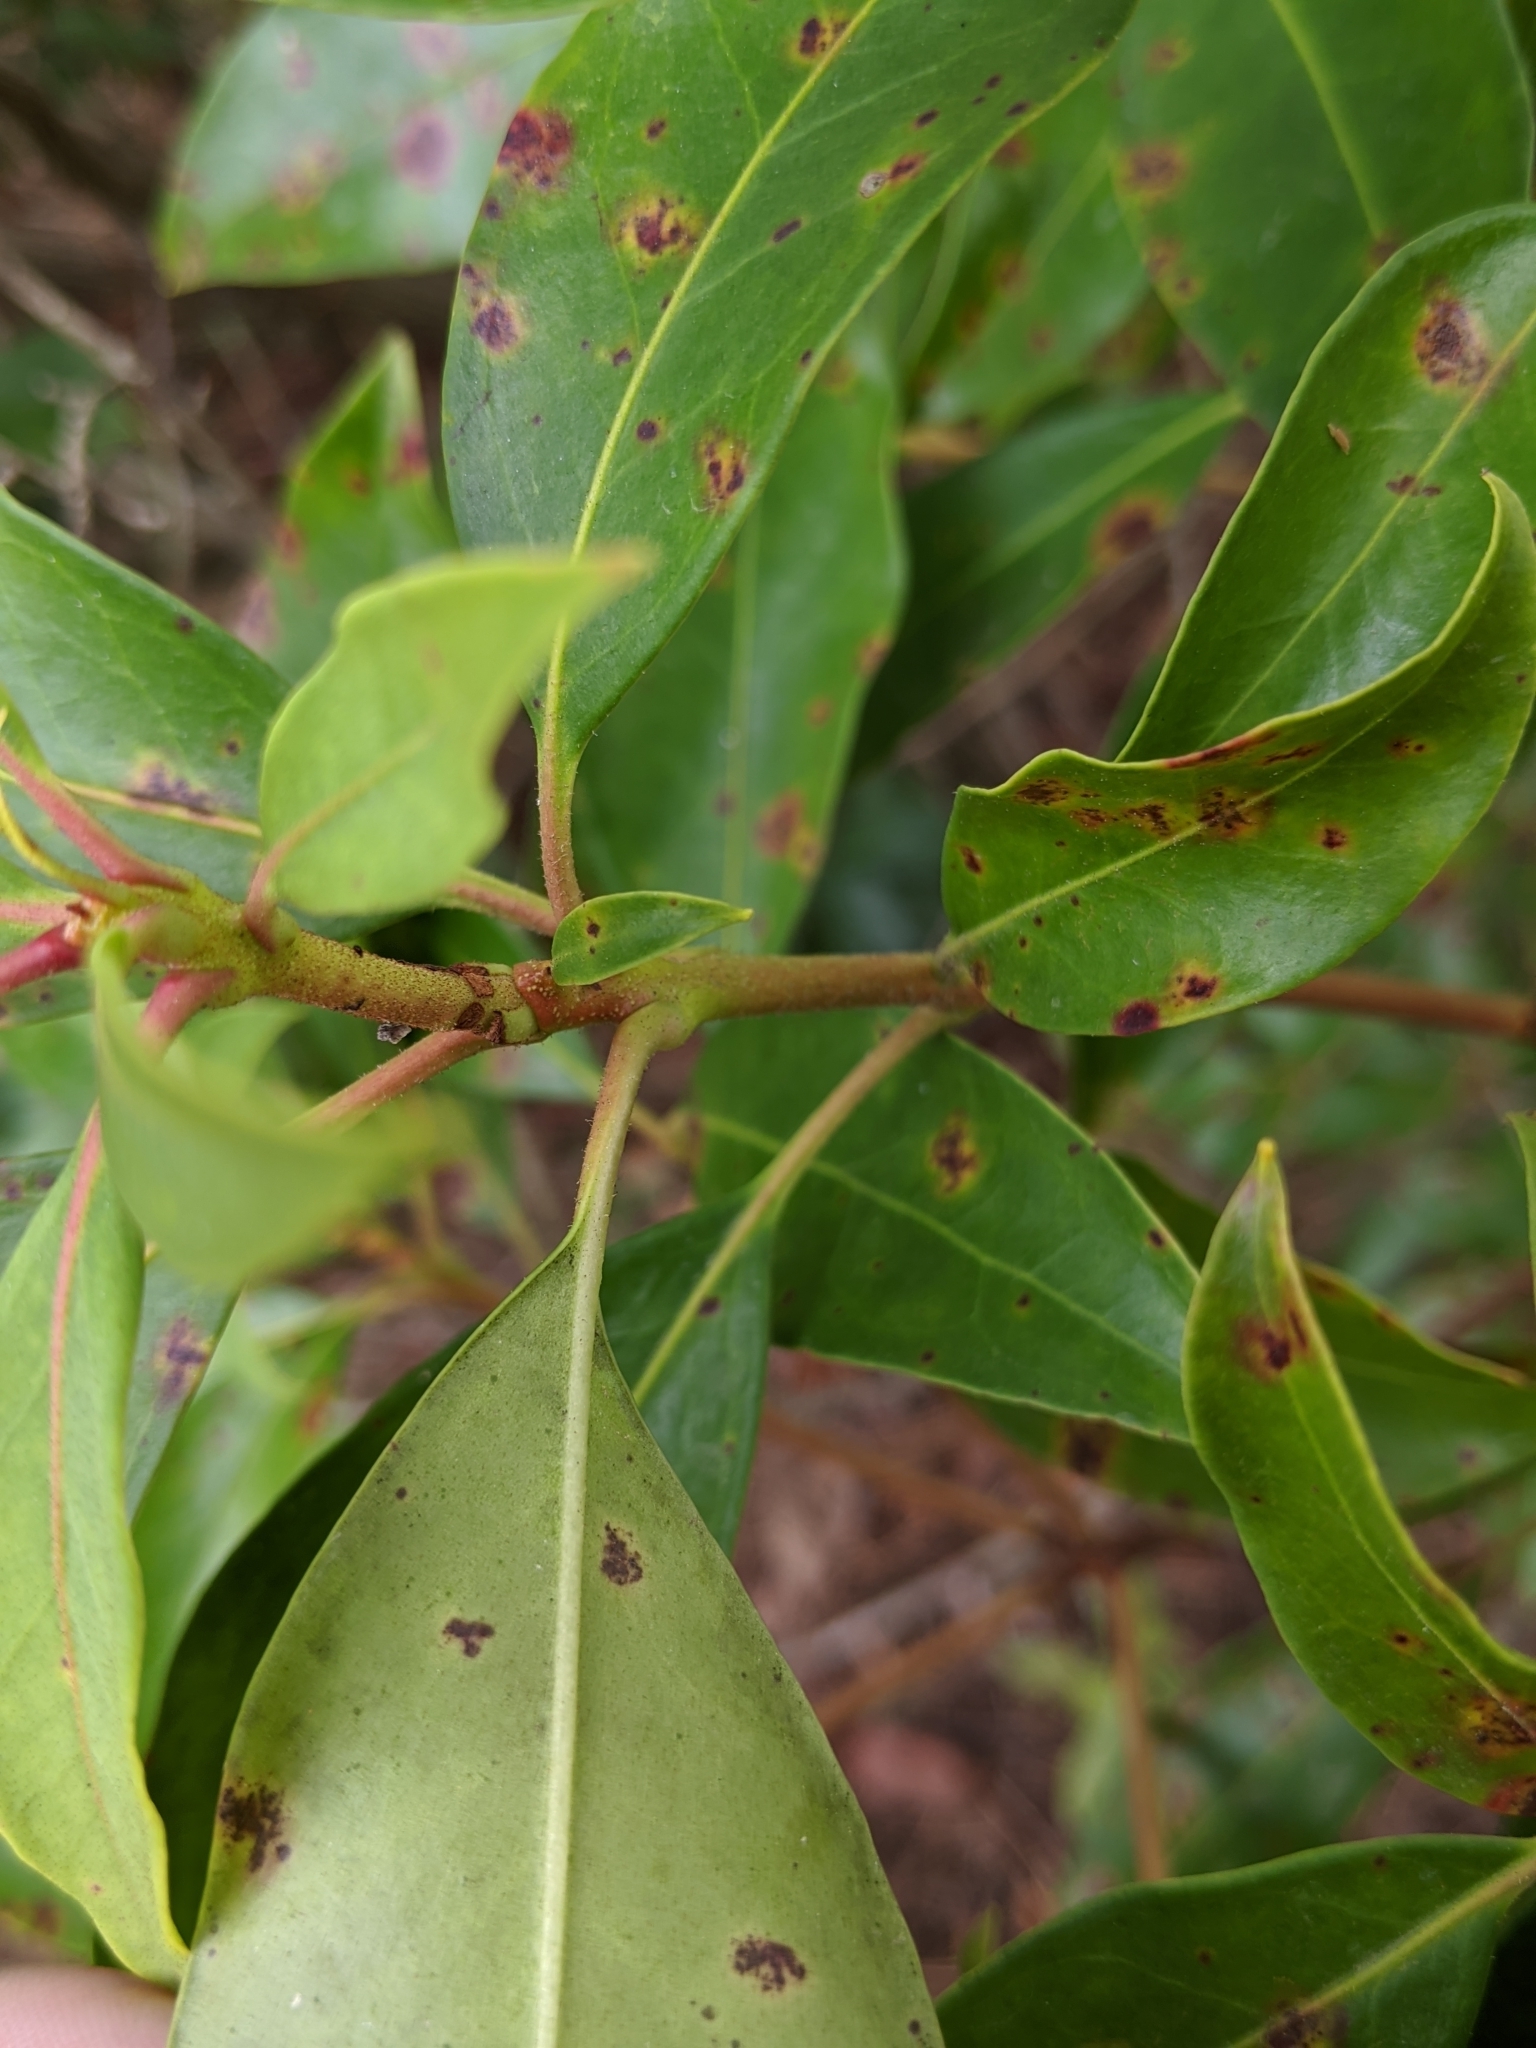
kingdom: Plantae
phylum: Tracheophyta
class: Magnoliopsida
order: Ericales
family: Ericaceae
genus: Kalmia
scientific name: Kalmia latifolia
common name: Mountain-laurel
